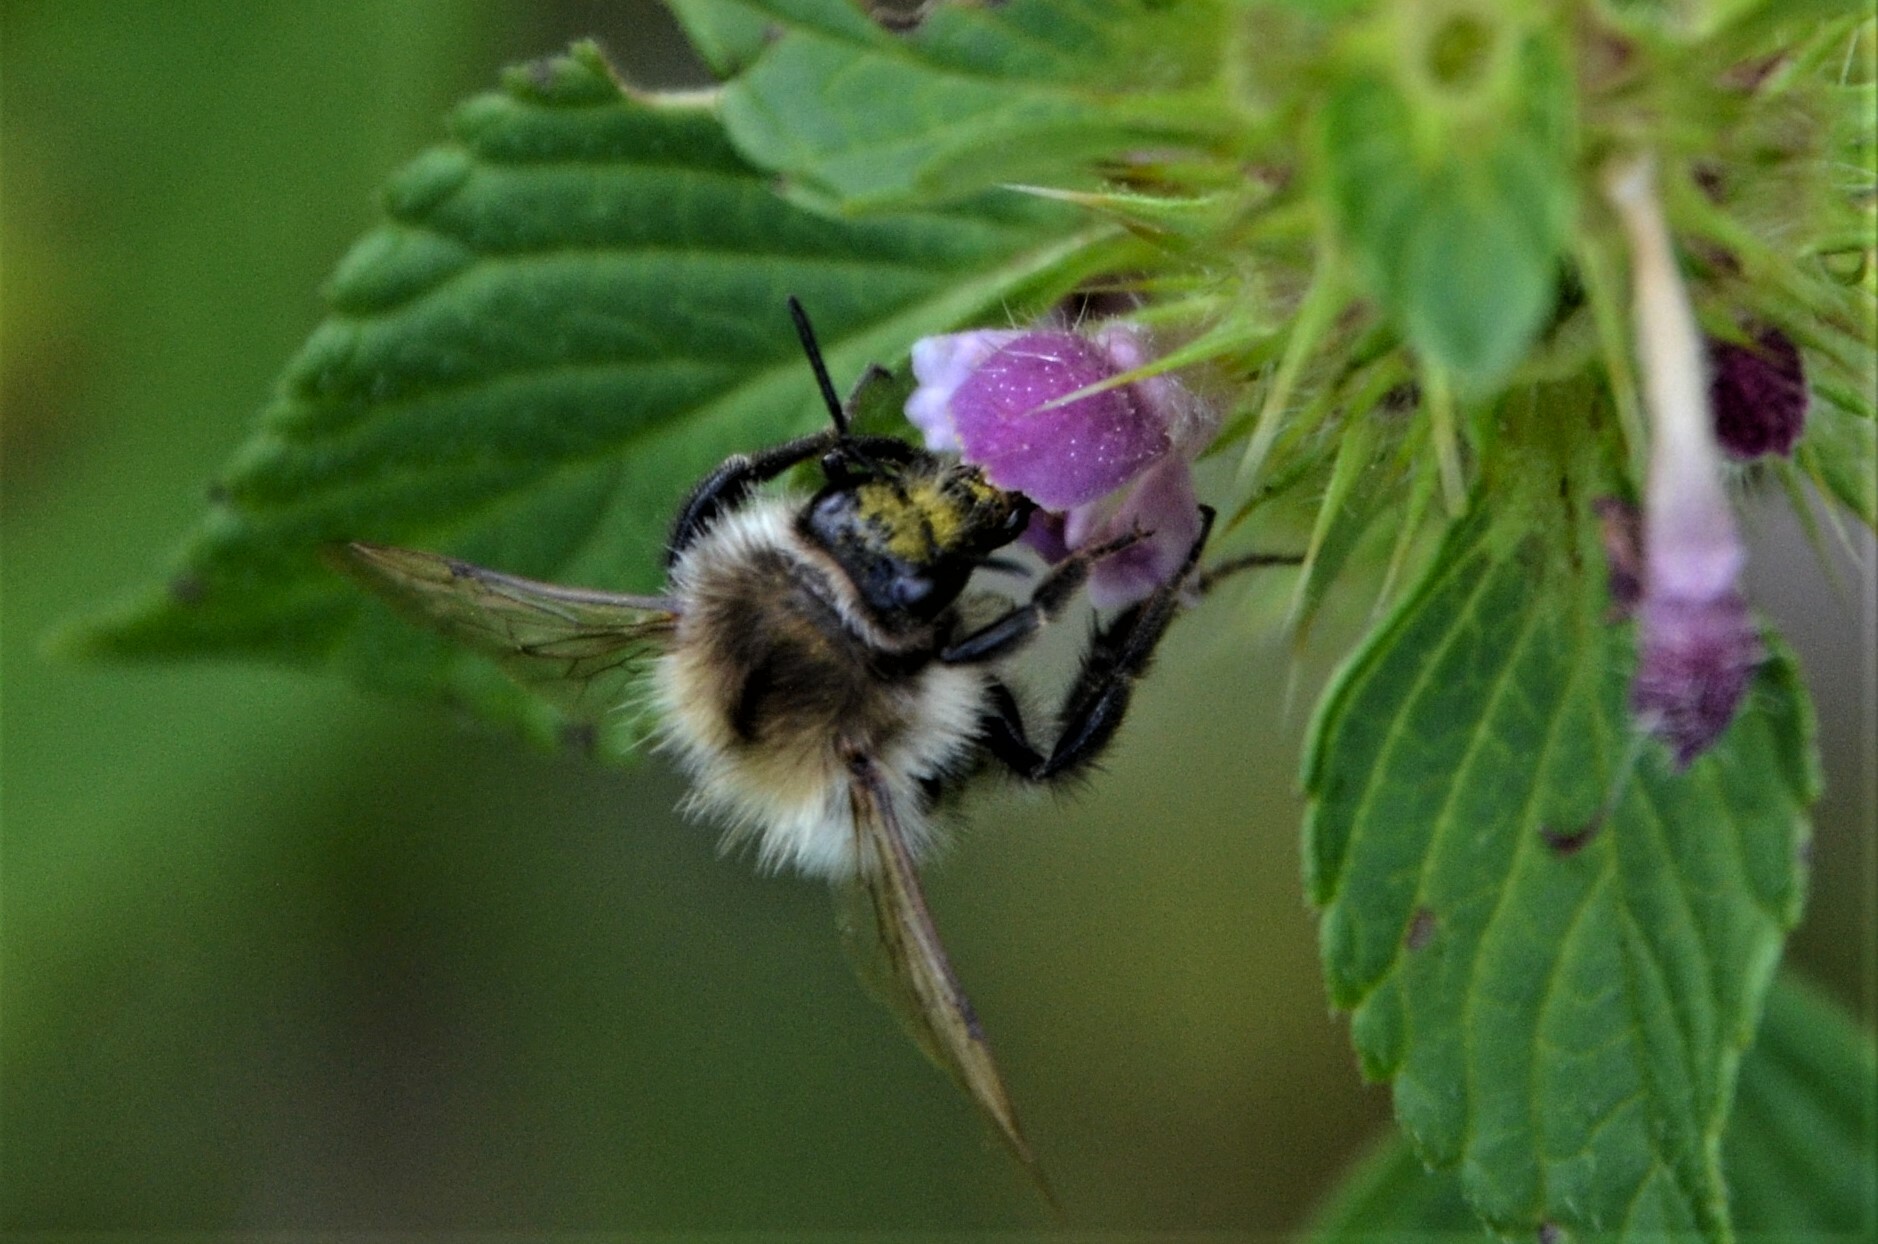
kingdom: Animalia
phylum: Arthropoda
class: Insecta
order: Hymenoptera
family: Apidae
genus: Bombus
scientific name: Bombus pascuorum
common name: Common carder bee
